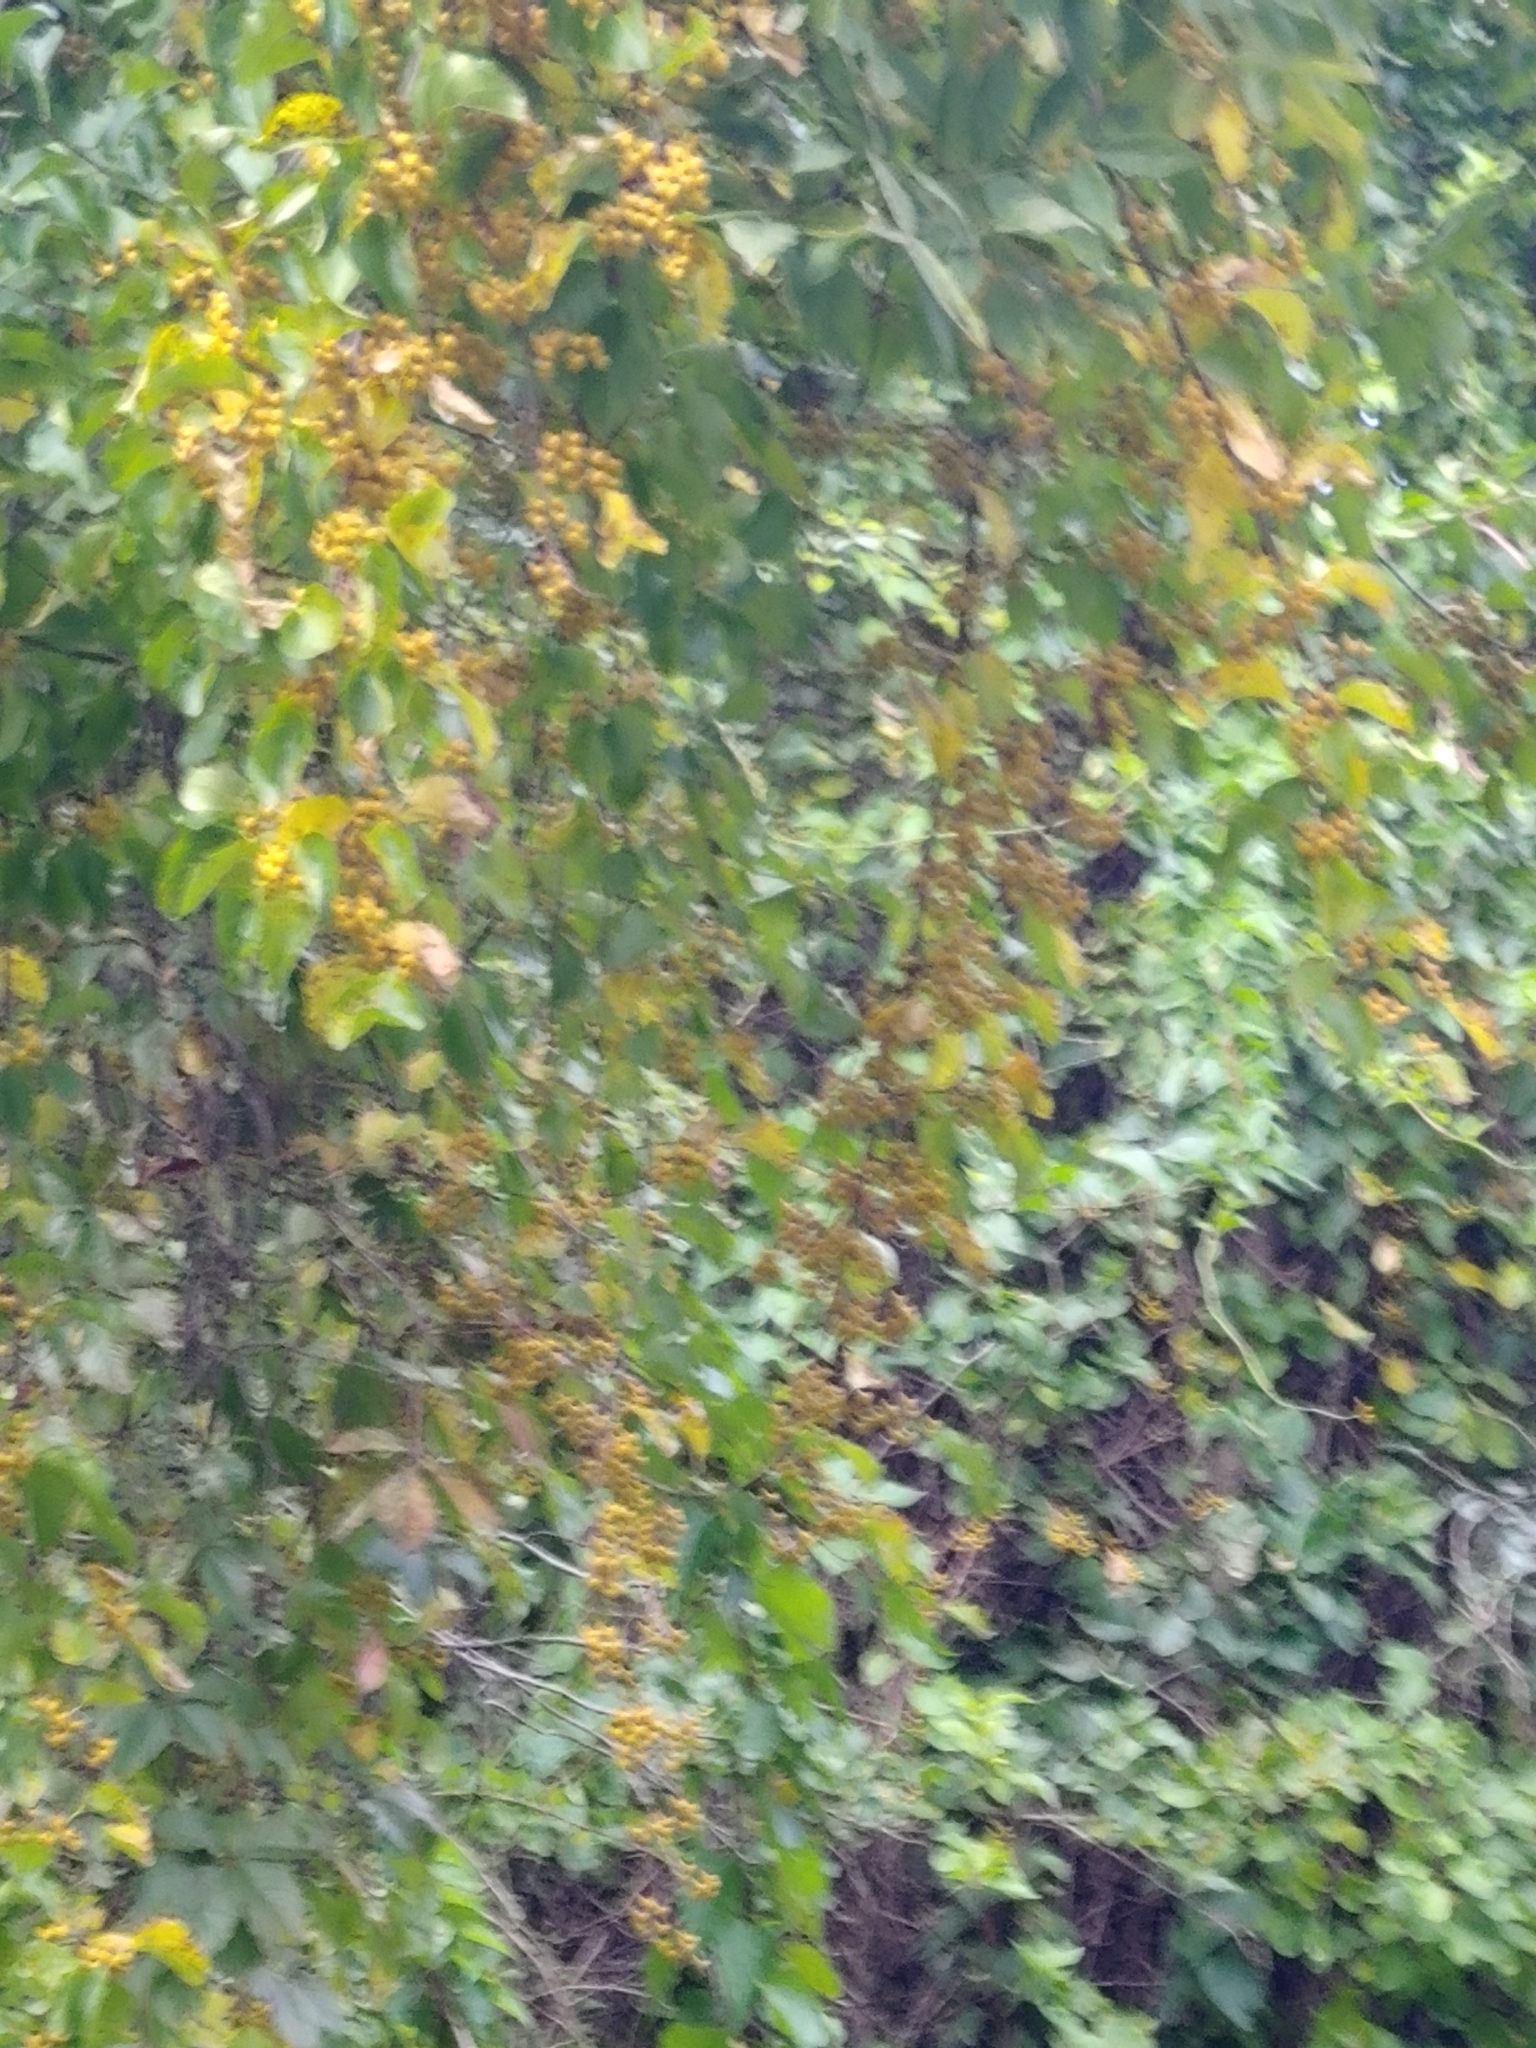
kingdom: Plantae
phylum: Tracheophyta
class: Magnoliopsida
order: Celastrales
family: Celastraceae
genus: Celastrus
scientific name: Celastrus orbiculatus
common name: Oriental bittersweet
